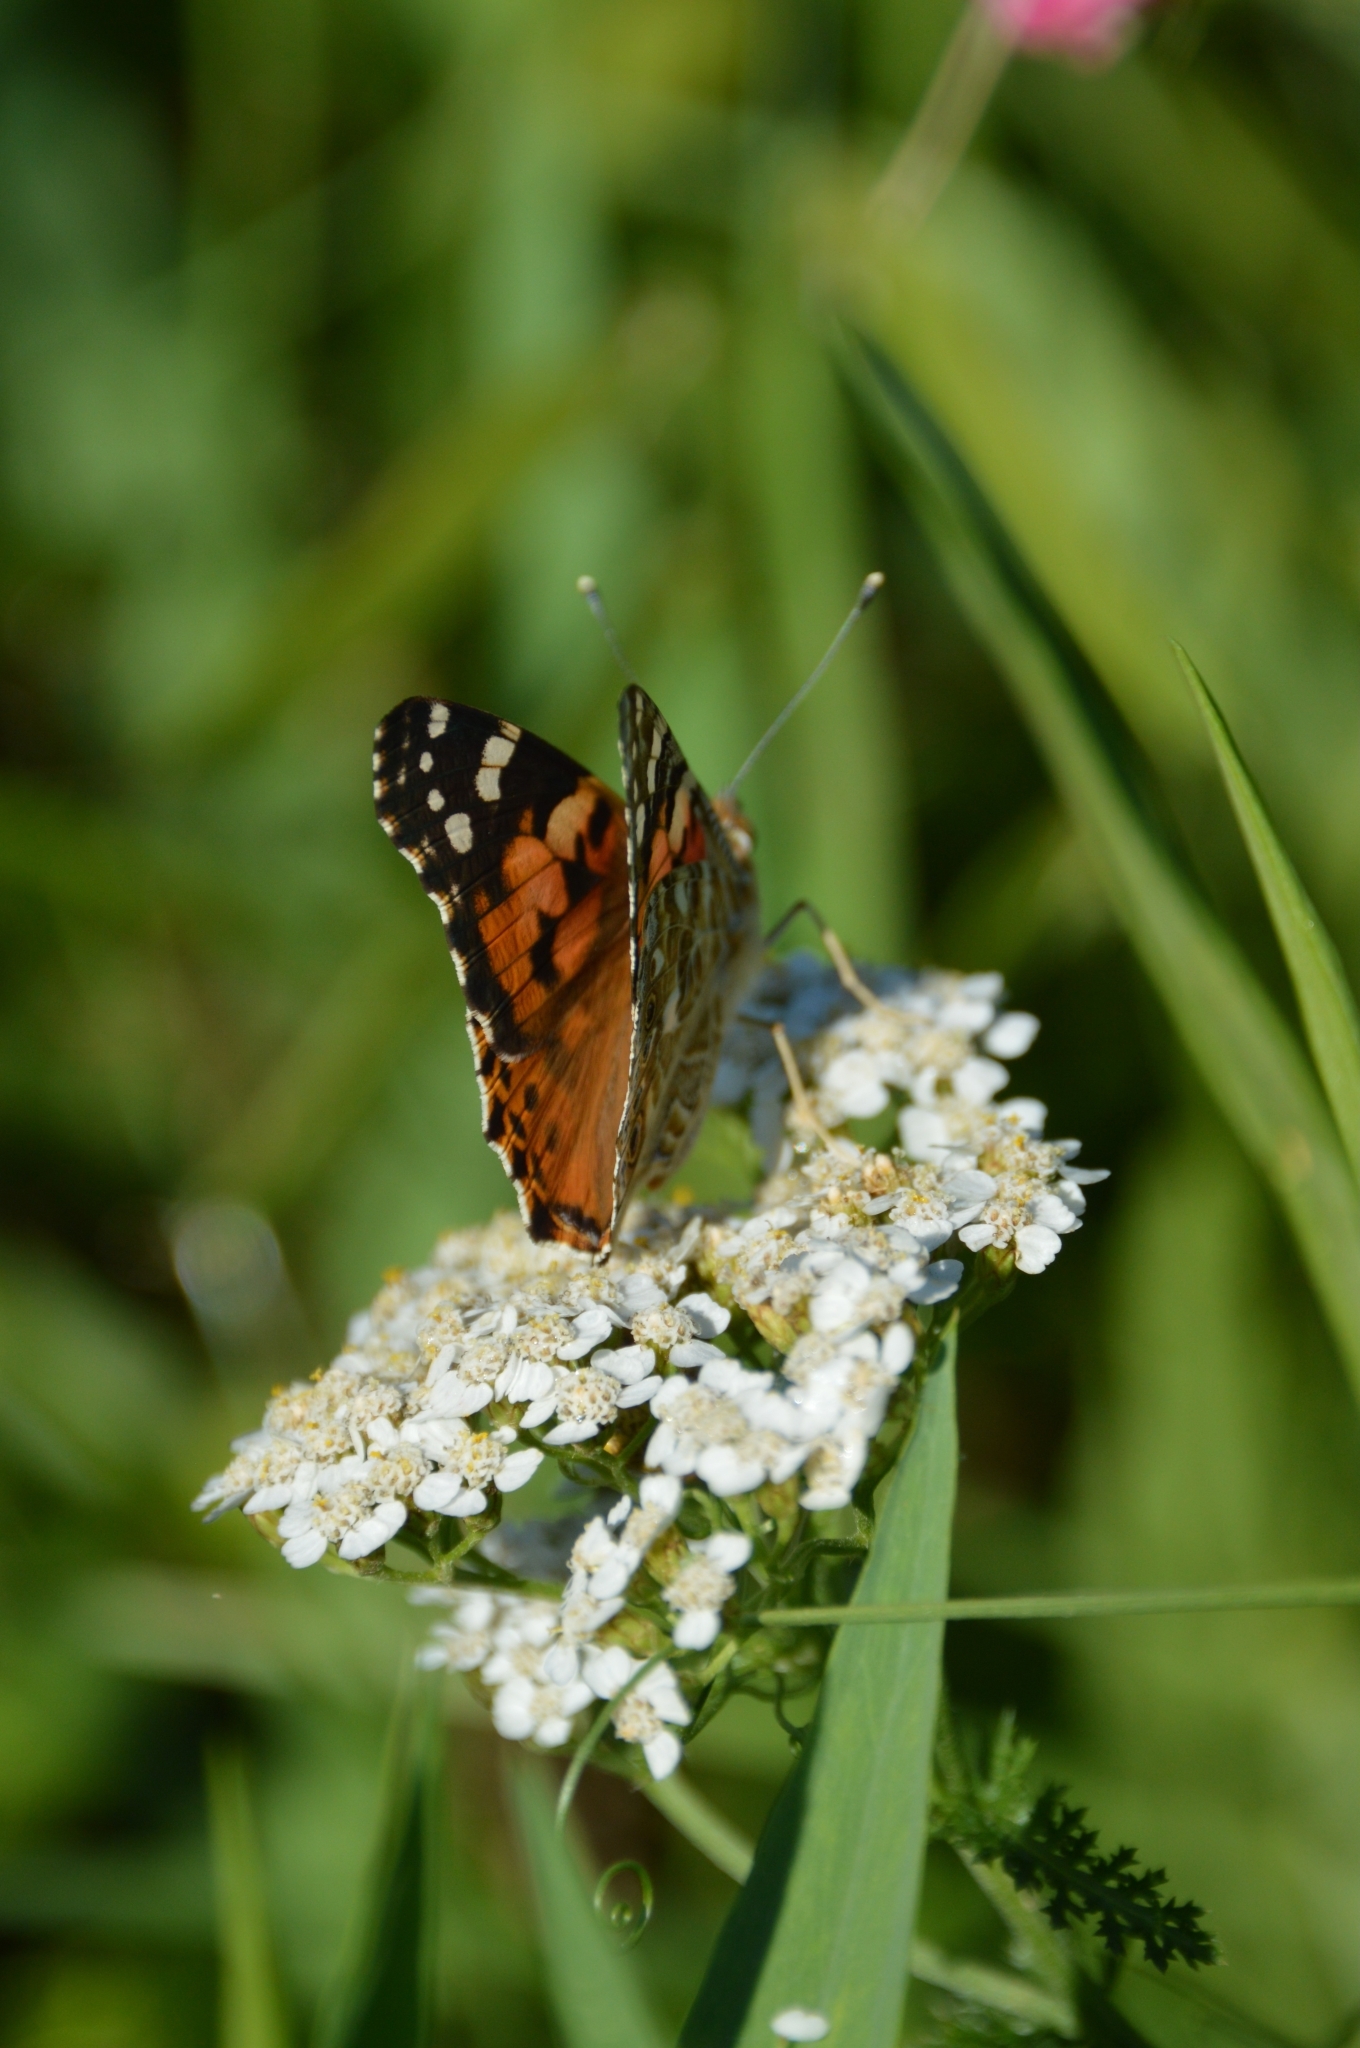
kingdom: Animalia
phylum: Arthropoda
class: Insecta
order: Lepidoptera
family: Nymphalidae
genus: Vanessa
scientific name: Vanessa cardui
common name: Painted lady
